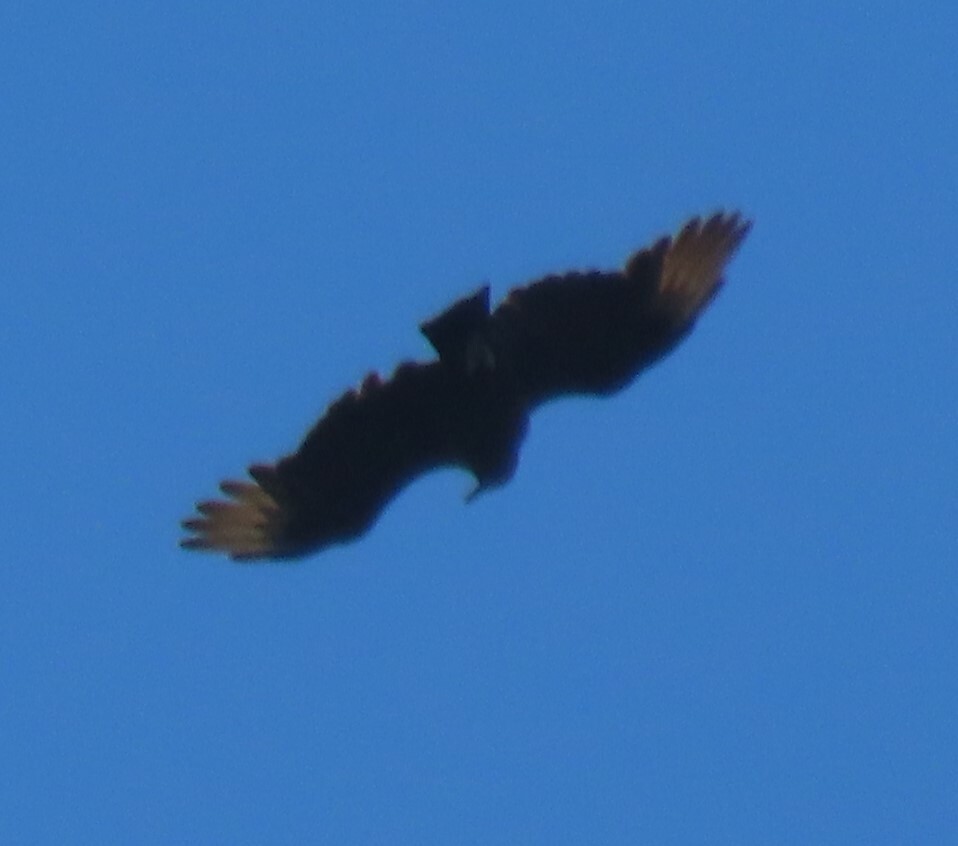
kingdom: Animalia
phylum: Chordata
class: Aves
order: Accipitriformes
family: Cathartidae
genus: Coragyps
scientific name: Coragyps atratus
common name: Black vulture
